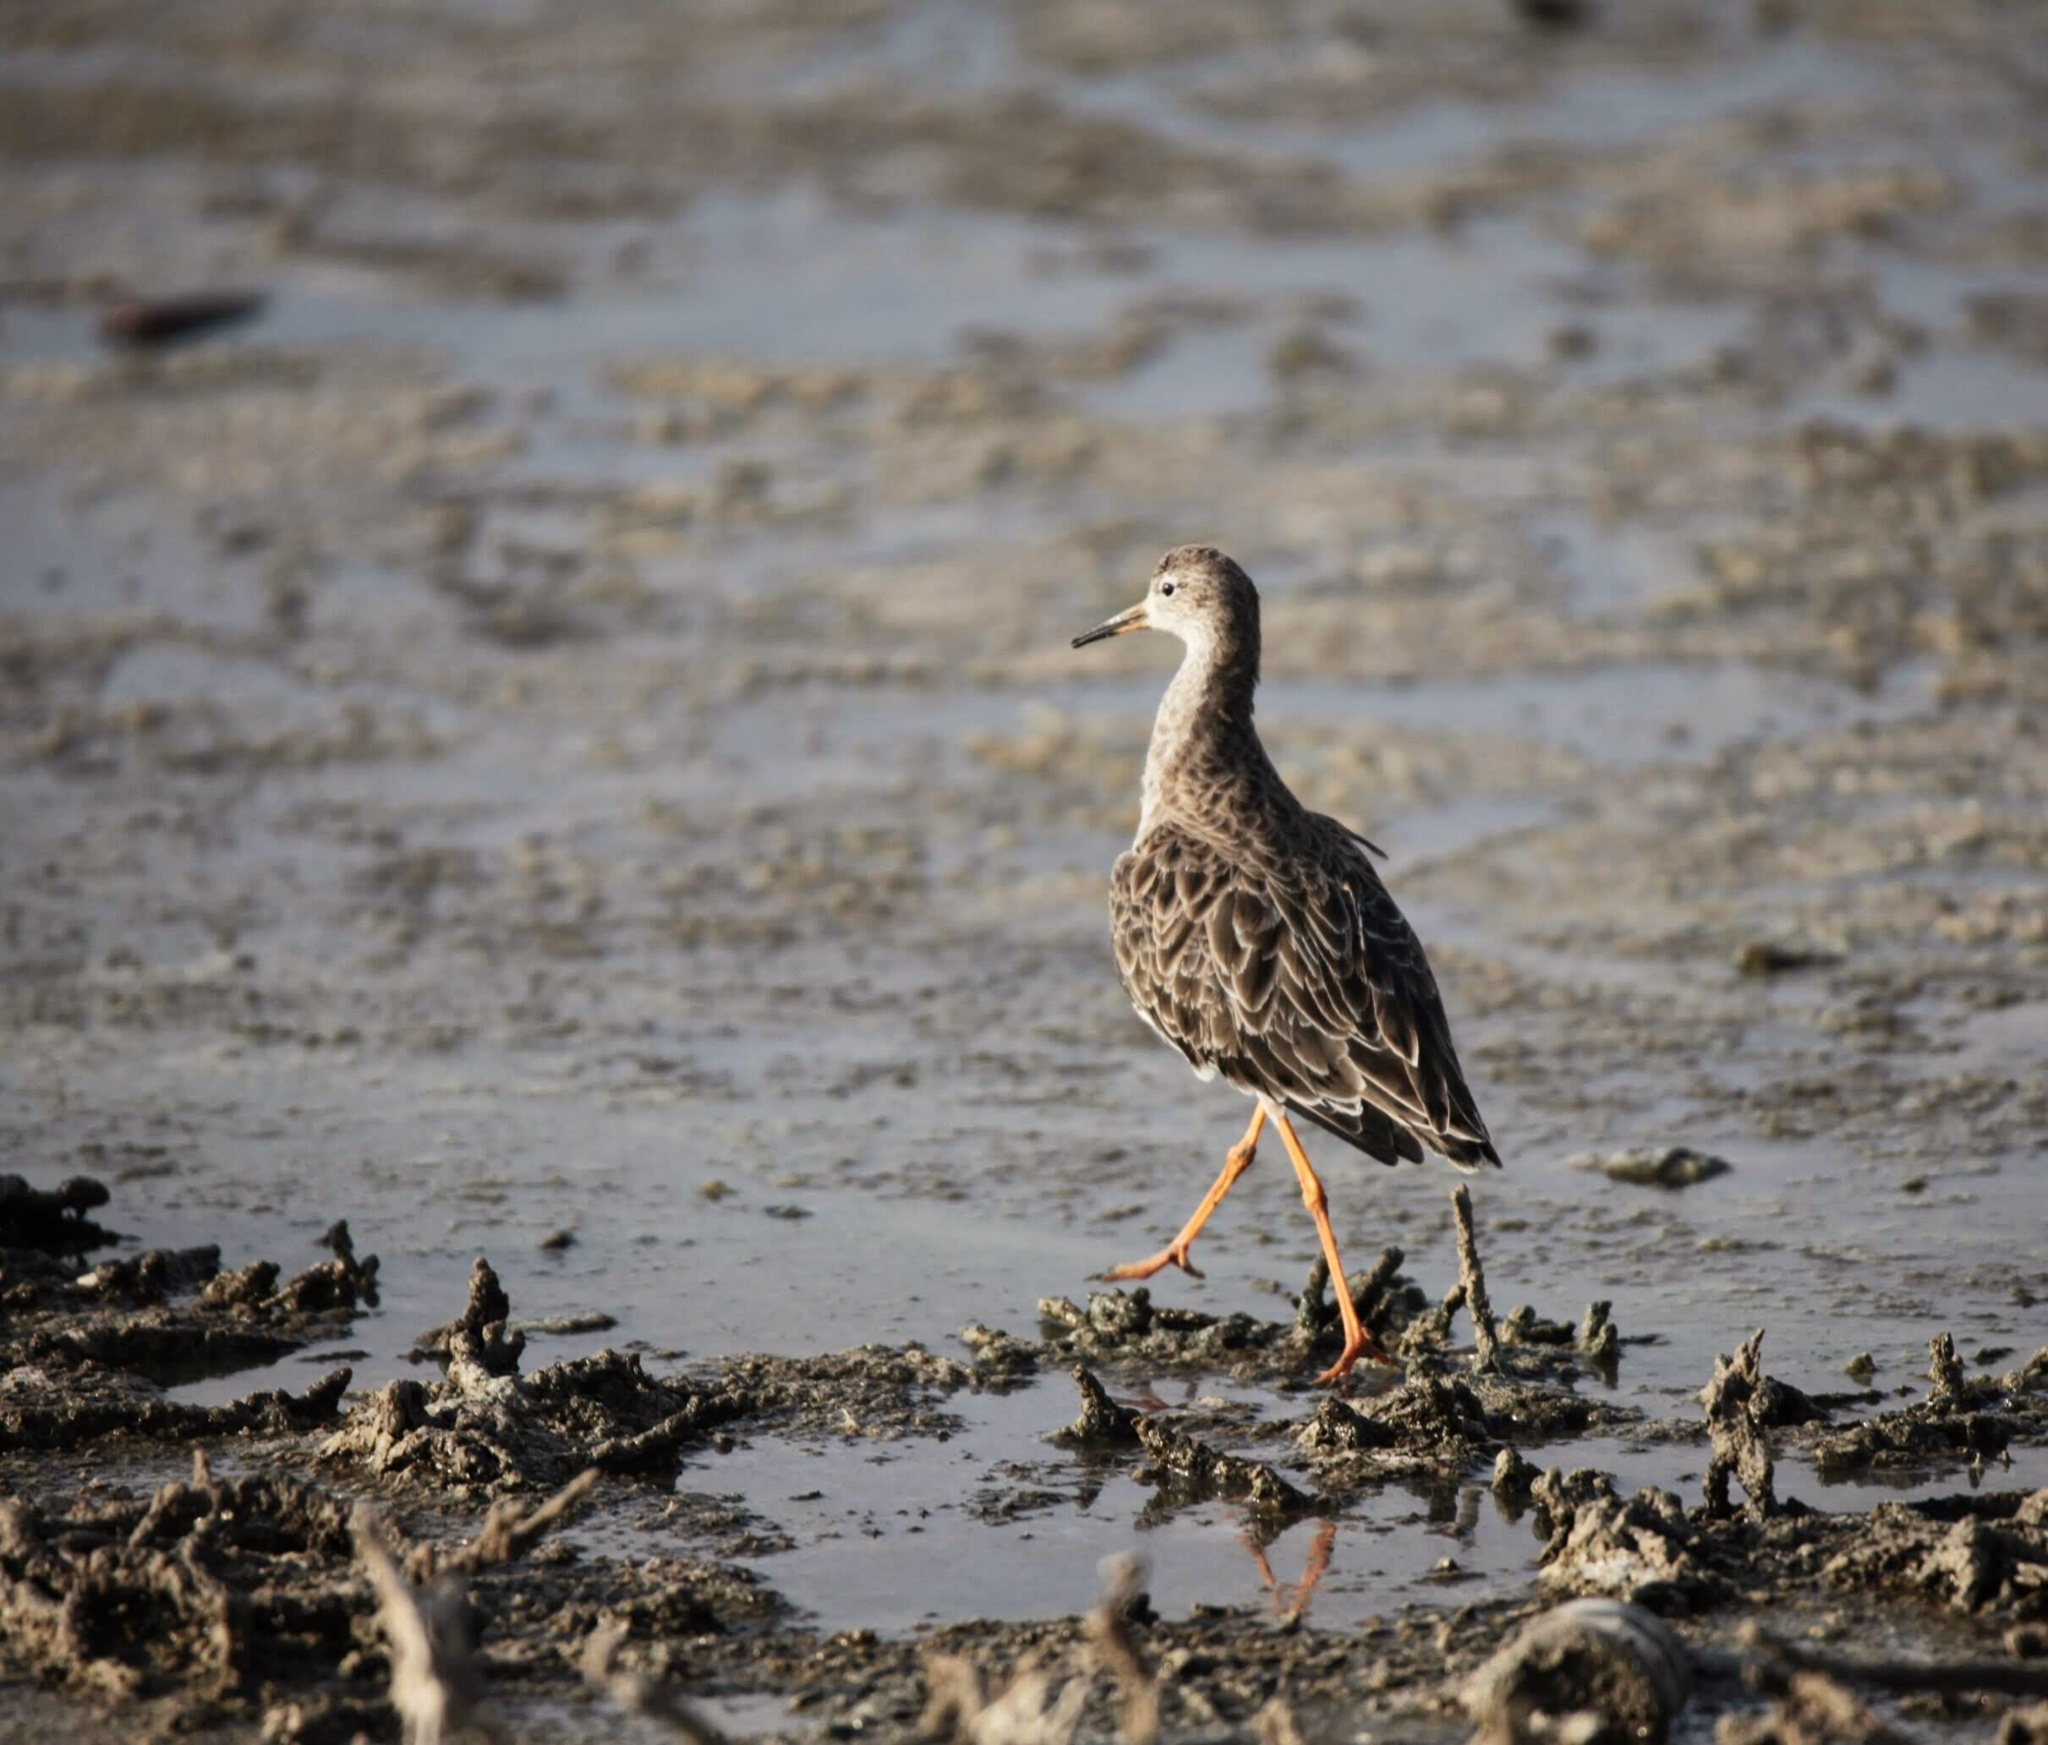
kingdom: Animalia
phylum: Chordata
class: Aves
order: Charadriiformes
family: Scolopacidae
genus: Calidris
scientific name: Calidris pugnax
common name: Ruff
